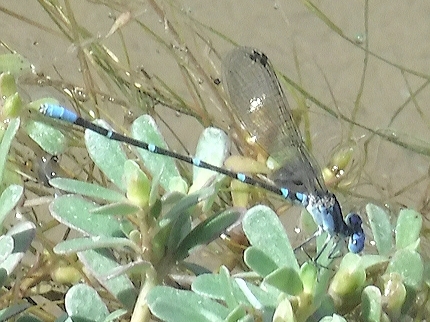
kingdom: Animalia
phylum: Arthropoda
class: Insecta
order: Odonata
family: Coenagrionidae
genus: Argia
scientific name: Argia sedula
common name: Blue-ringed dancer
